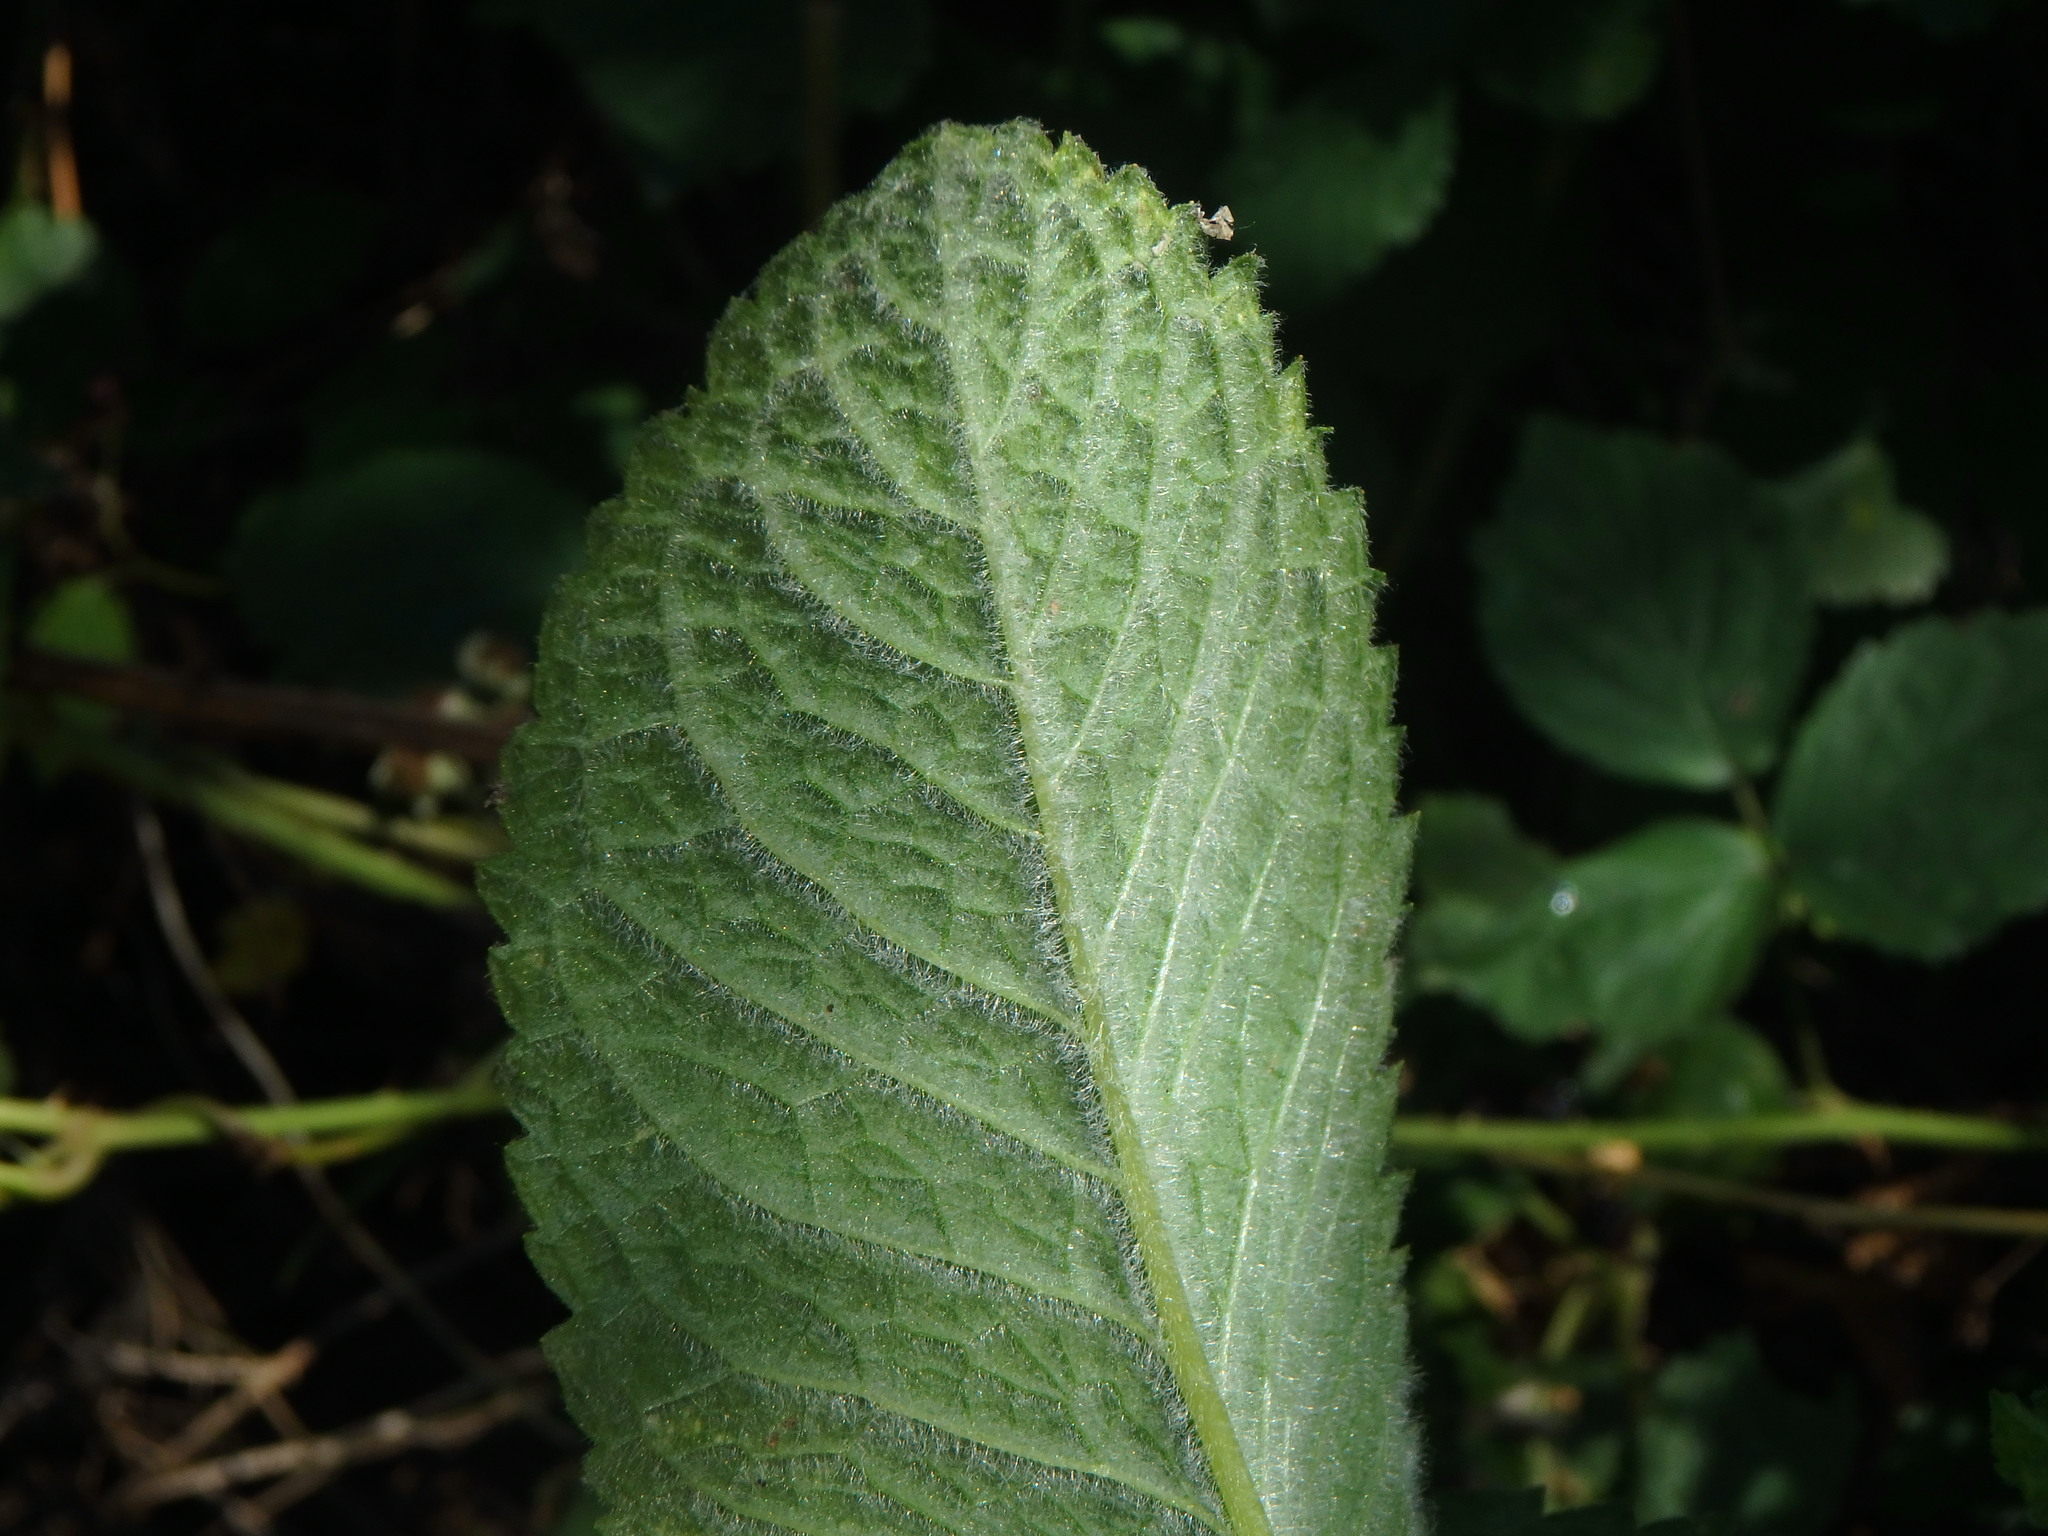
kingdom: Plantae
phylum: Tracheophyta
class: Magnoliopsida
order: Lamiales
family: Lamiaceae
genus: Mentha
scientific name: Mentha villosa
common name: Apple mint
